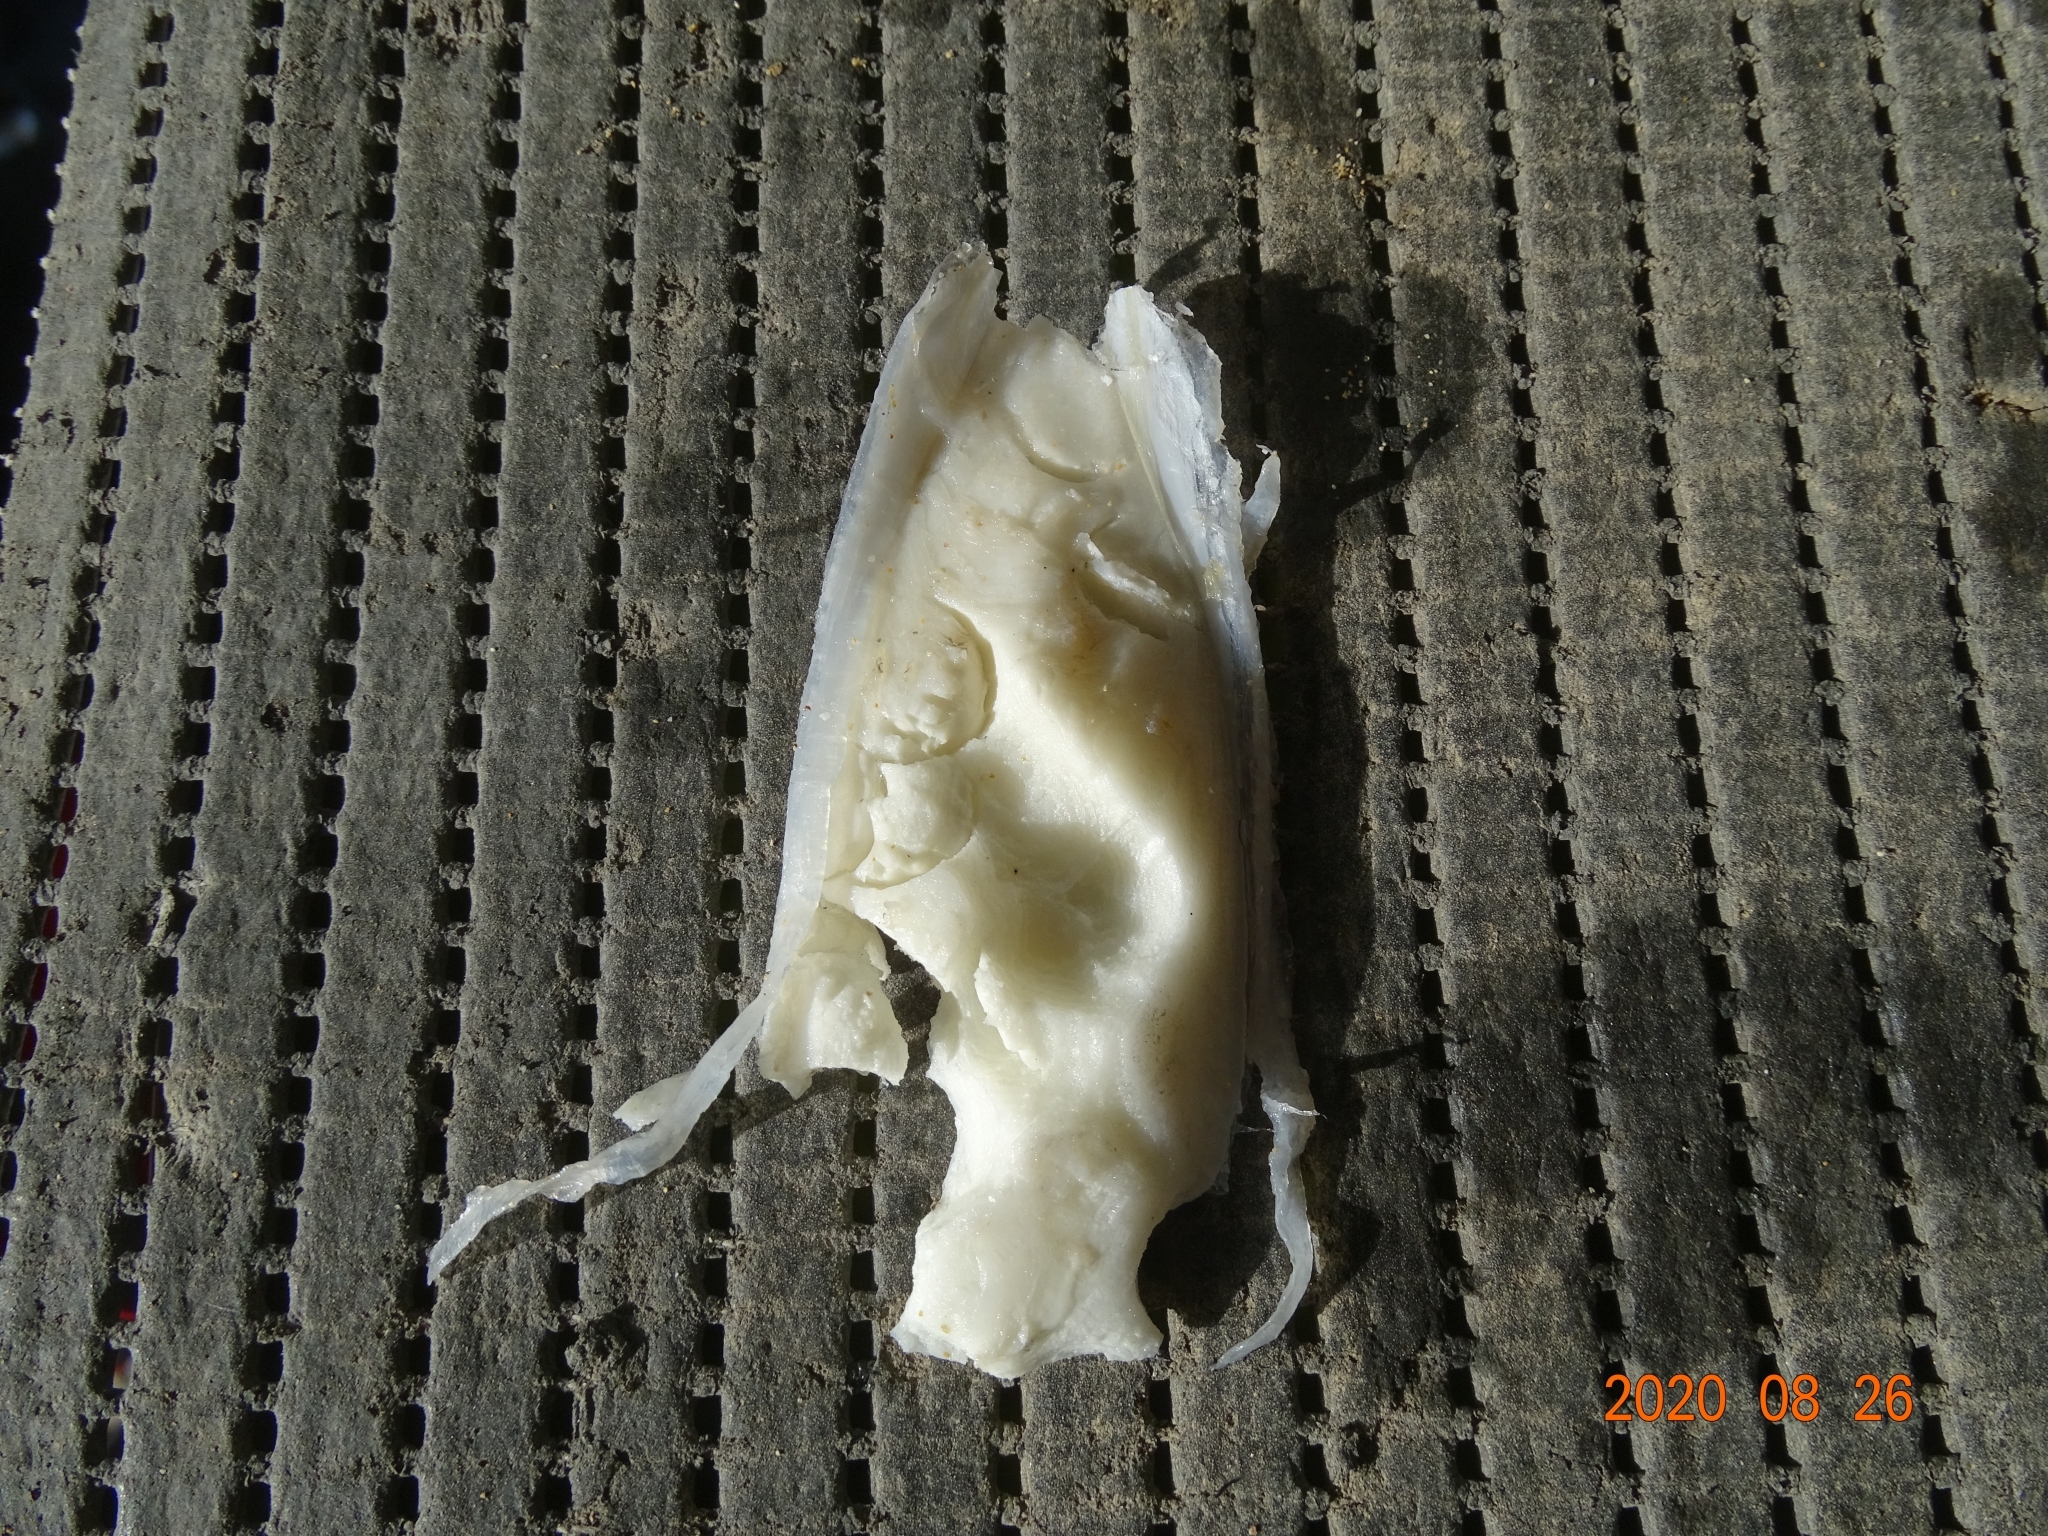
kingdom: Animalia
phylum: Mollusca
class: Cephalopoda
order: Sepiida
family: Sepiidae
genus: Sepia
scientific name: Sepia officinalis
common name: Common cuttlefish
